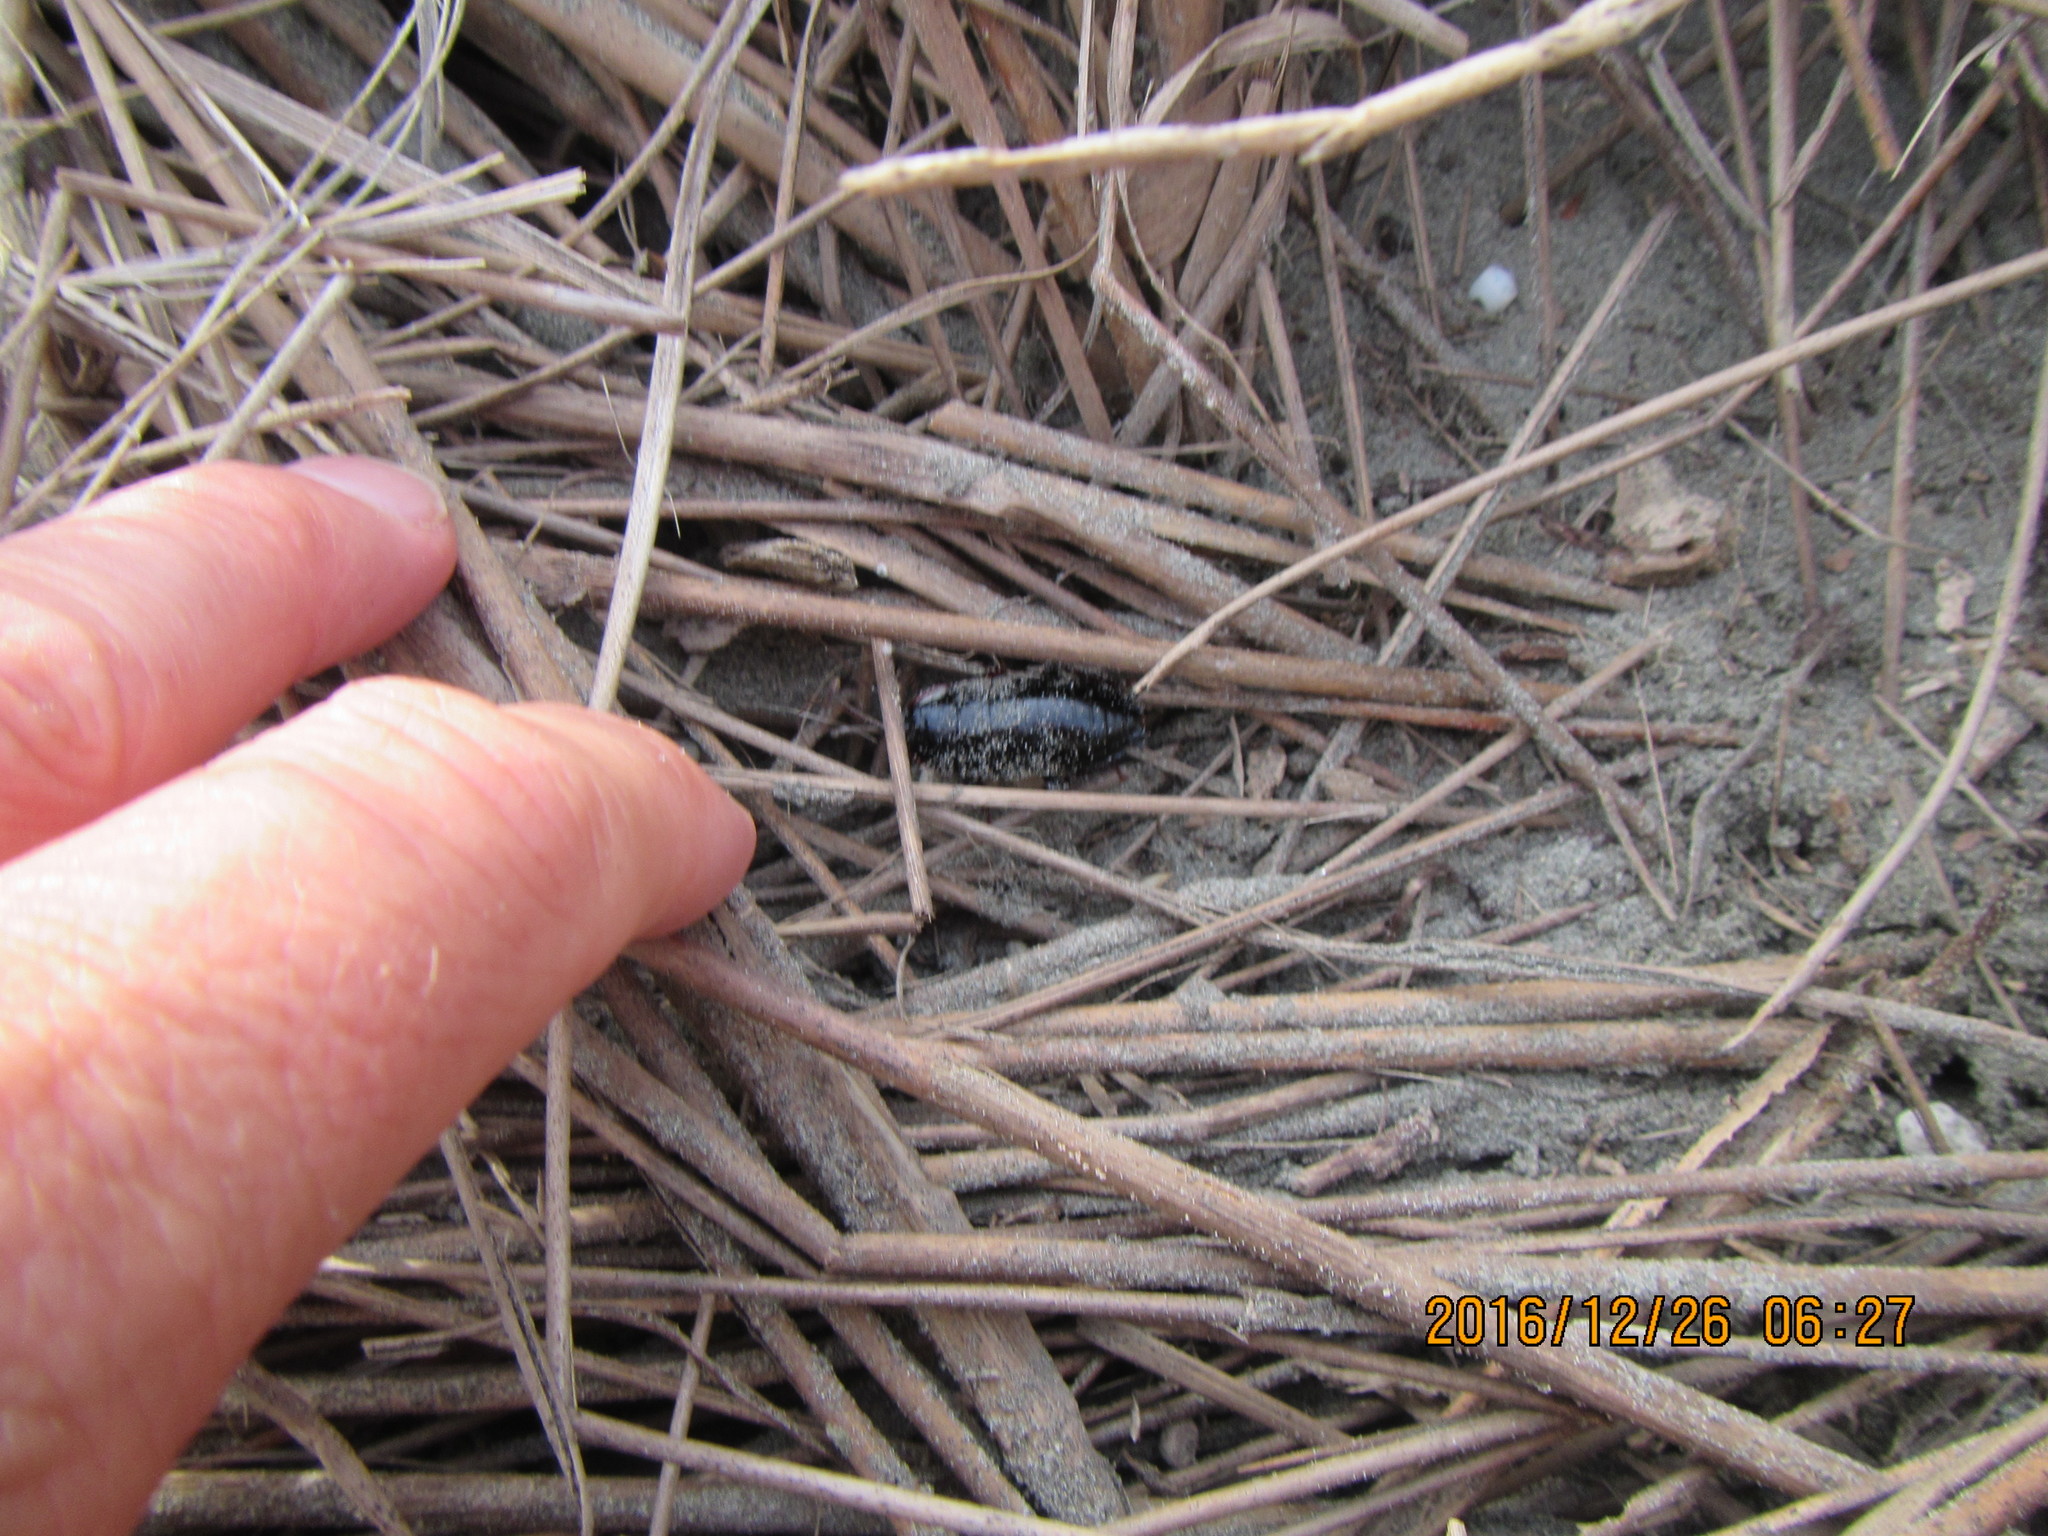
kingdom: Animalia
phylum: Arthropoda
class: Insecta
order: Blattodea
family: Blattidae
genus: Maoriblatta
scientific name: Maoriblatta novaeseelandiae
